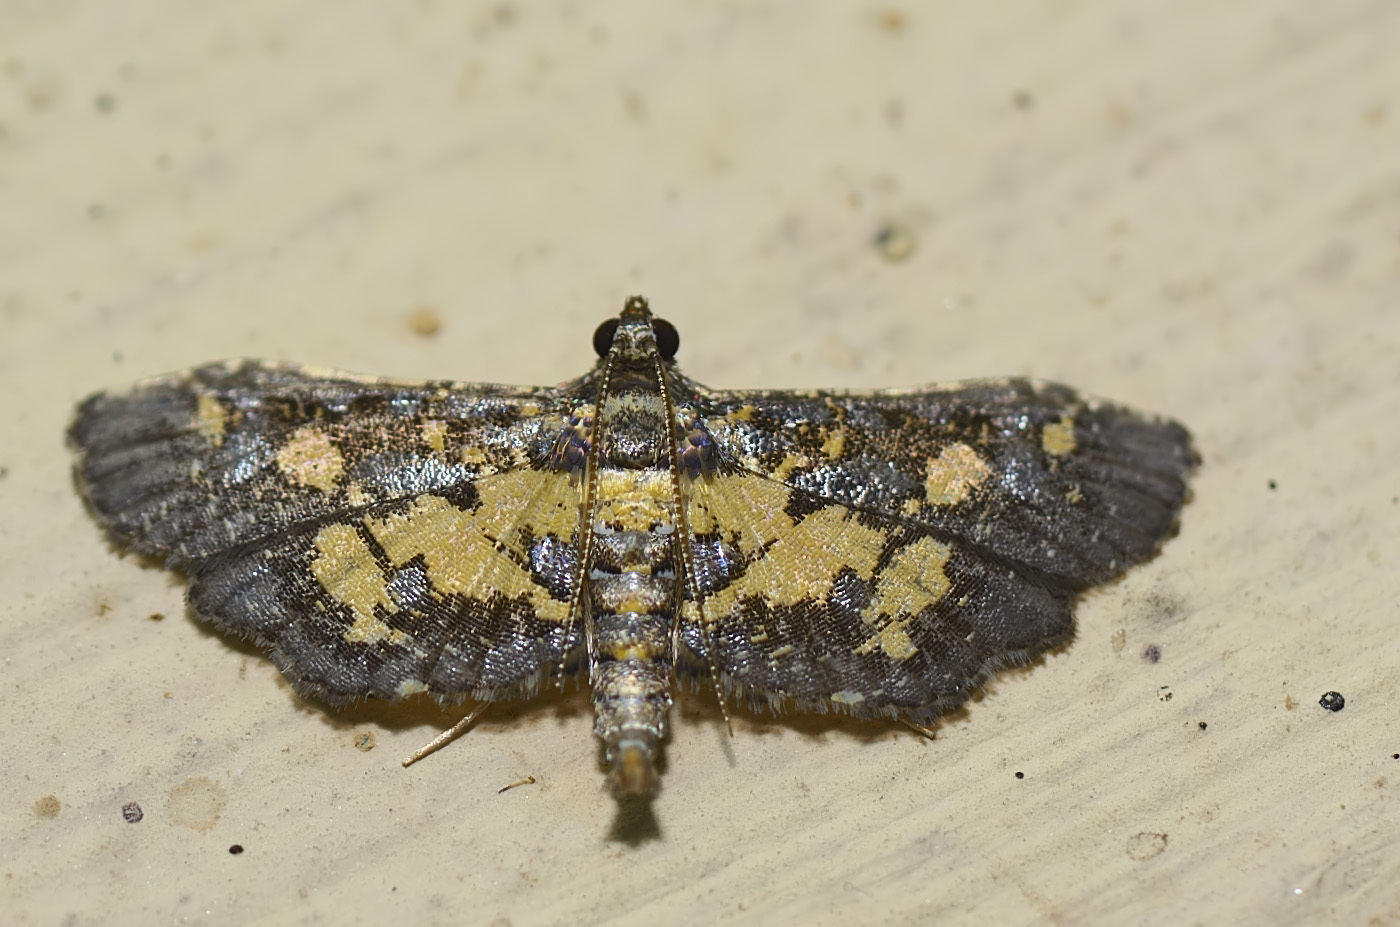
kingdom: Animalia
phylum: Arthropoda
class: Insecta
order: Lepidoptera
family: Crambidae
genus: Eurrhyparodes
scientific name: Eurrhyparodes bracteolalis
